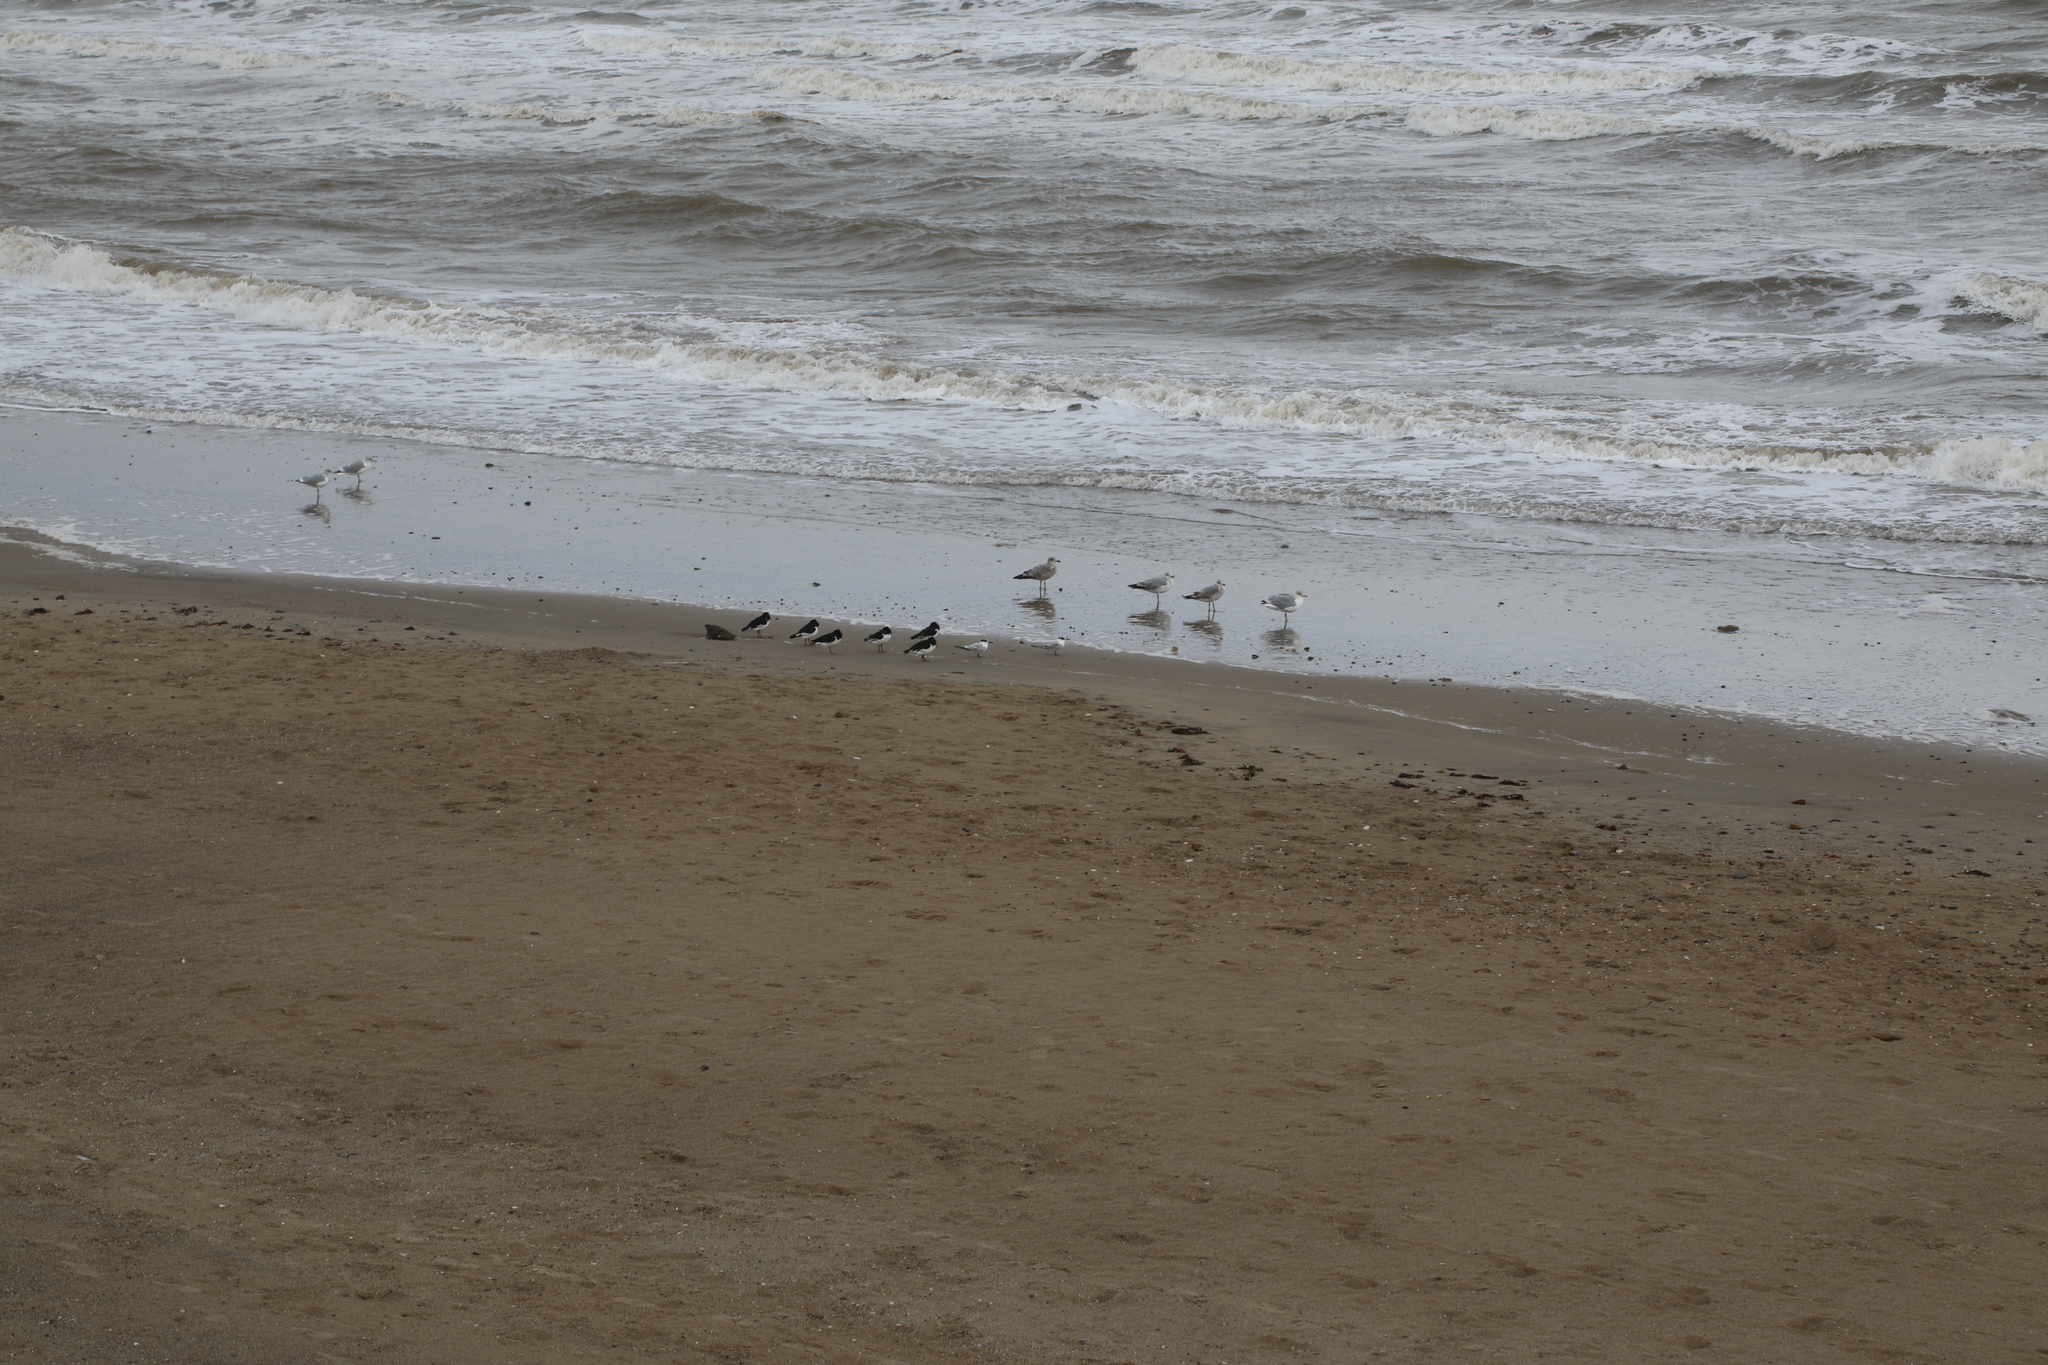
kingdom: Animalia
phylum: Chordata
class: Aves
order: Charadriiformes
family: Laridae
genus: Thalasseus
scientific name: Thalasseus sandvicensis
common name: Sandwich tern
